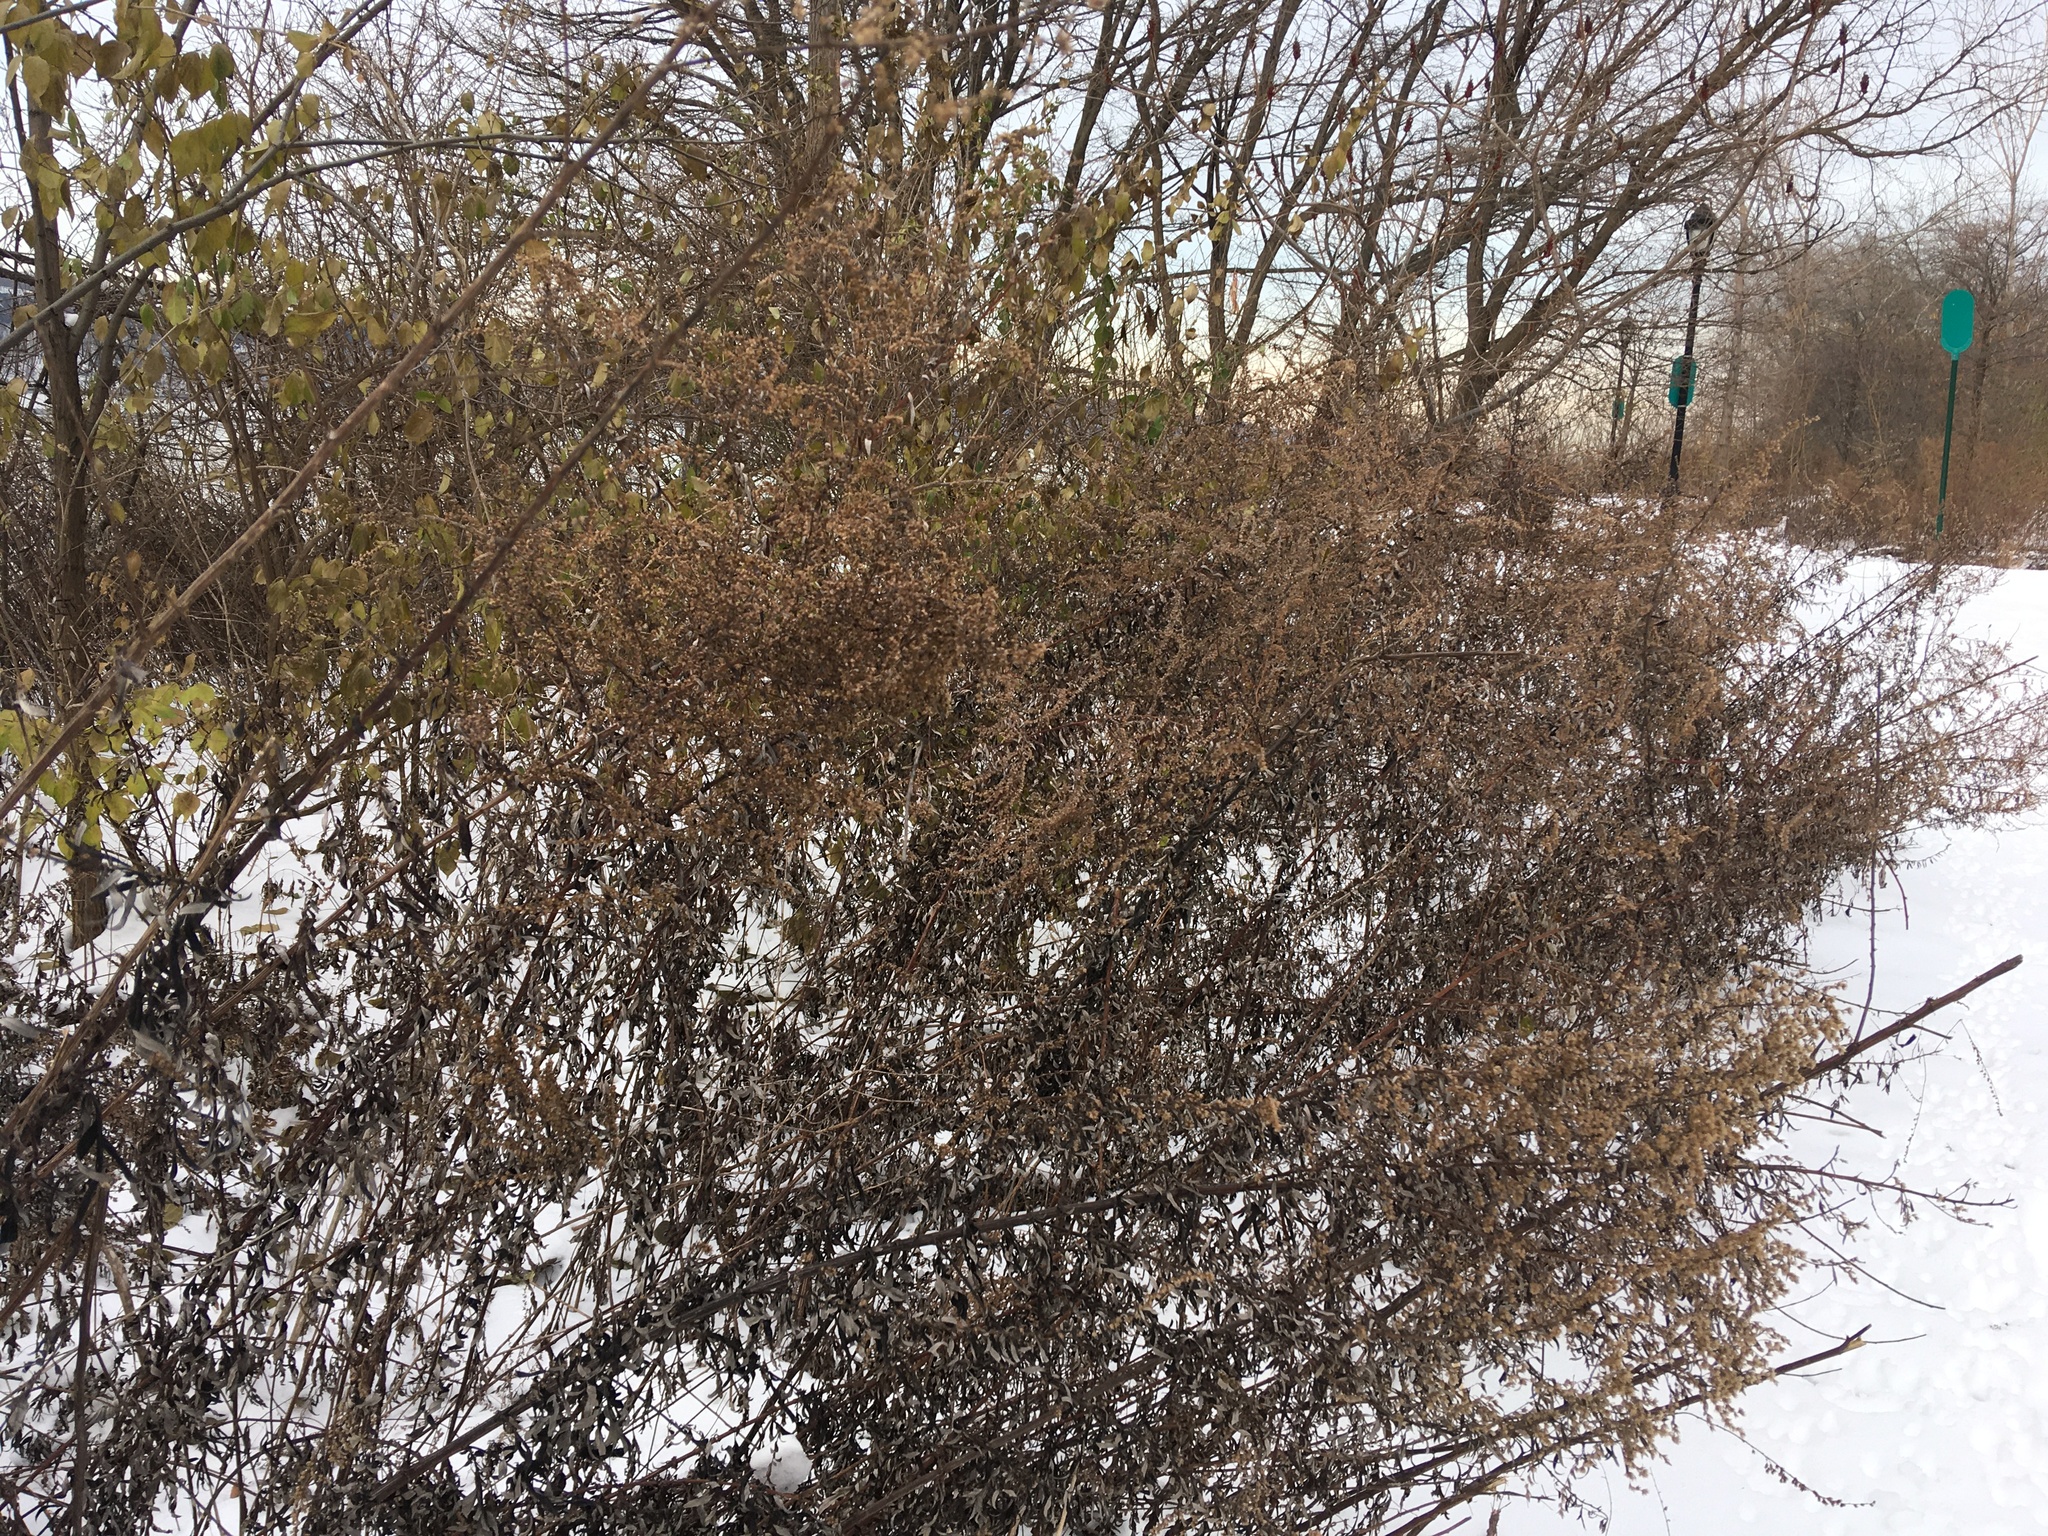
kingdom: Plantae
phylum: Tracheophyta
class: Magnoliopsida
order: Asterales
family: Asteraceae
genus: Artemisia
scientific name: Artemisia vulgaris
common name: Mugwort
